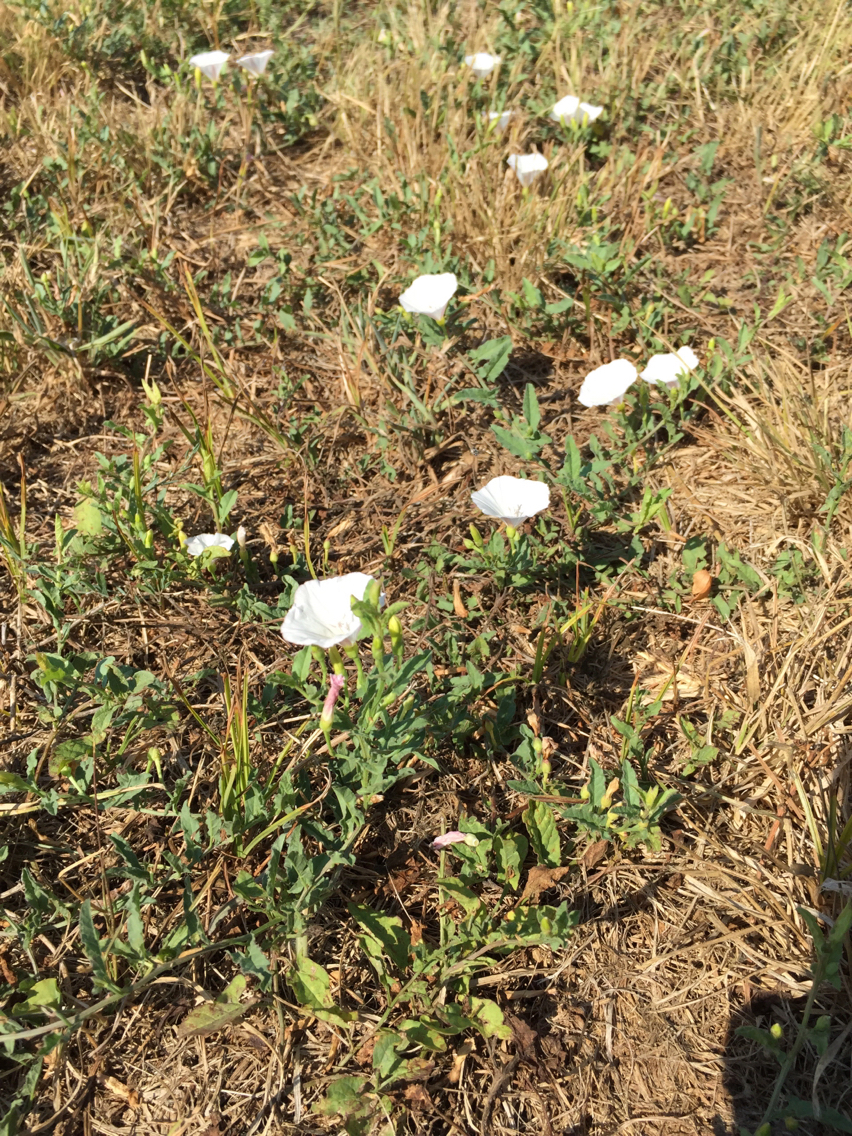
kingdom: Plantae
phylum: Tracheophyta
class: Magnoliopsida
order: Solanales
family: Convolvulaceae
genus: Convolvulus
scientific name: Convolvulus arvensis
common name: Field bindweed
